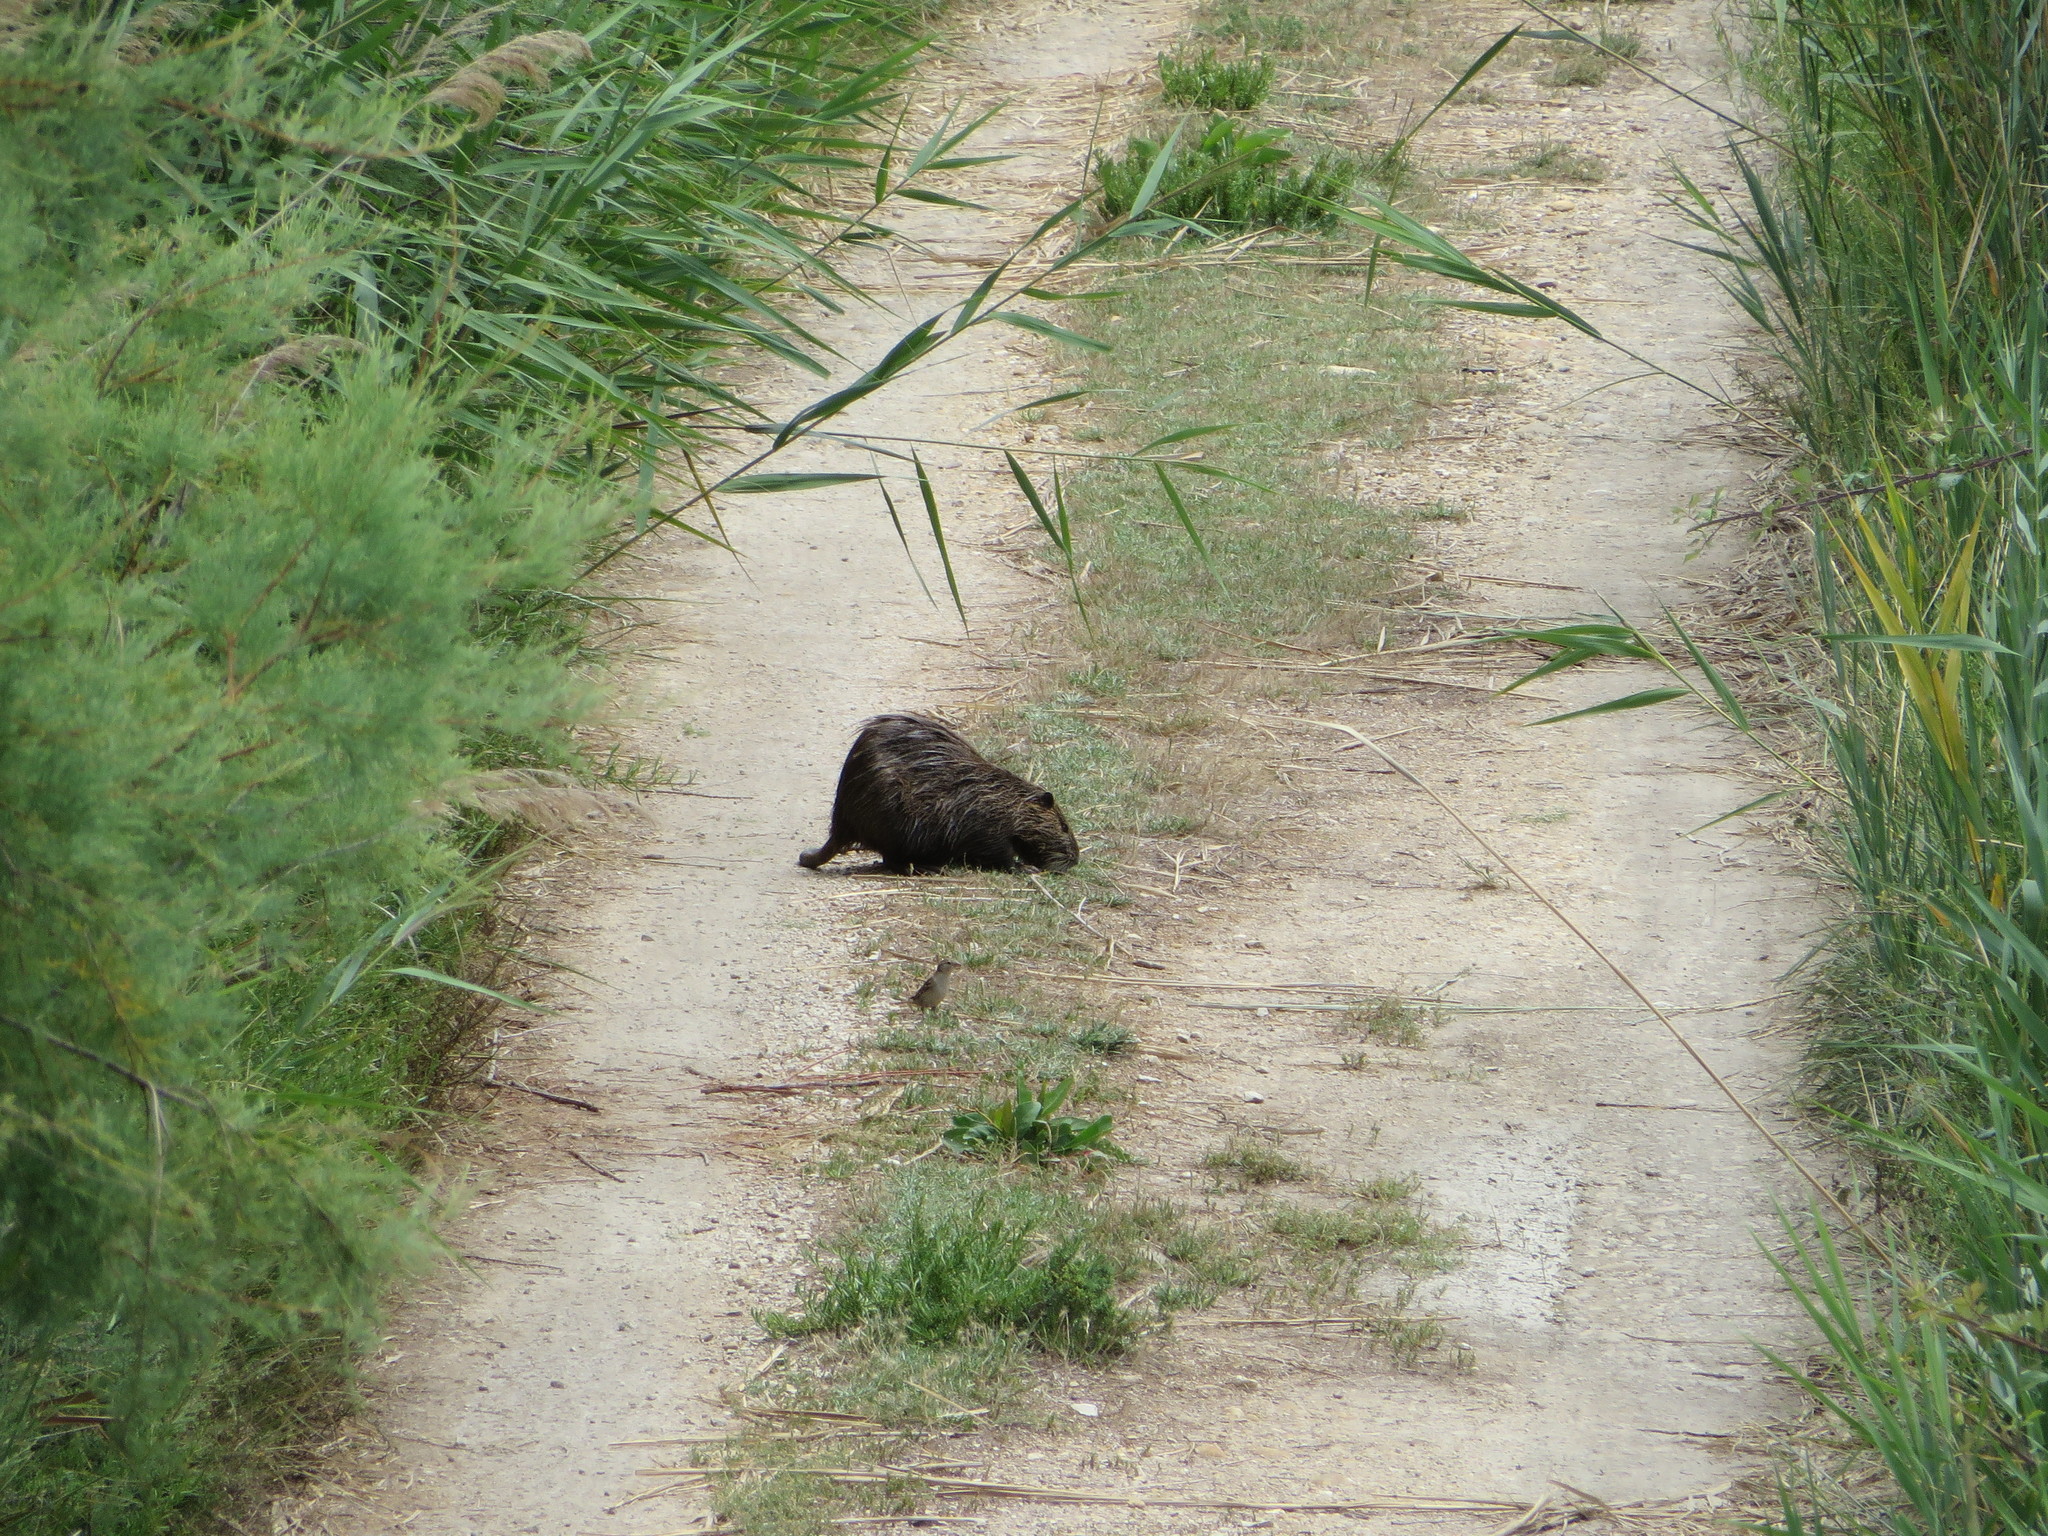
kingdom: Animalia
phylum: Chordata
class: Mammalia
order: Rodentia
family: Myocastoridae
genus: Myocastor
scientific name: Myocastor coypus
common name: Coypu
